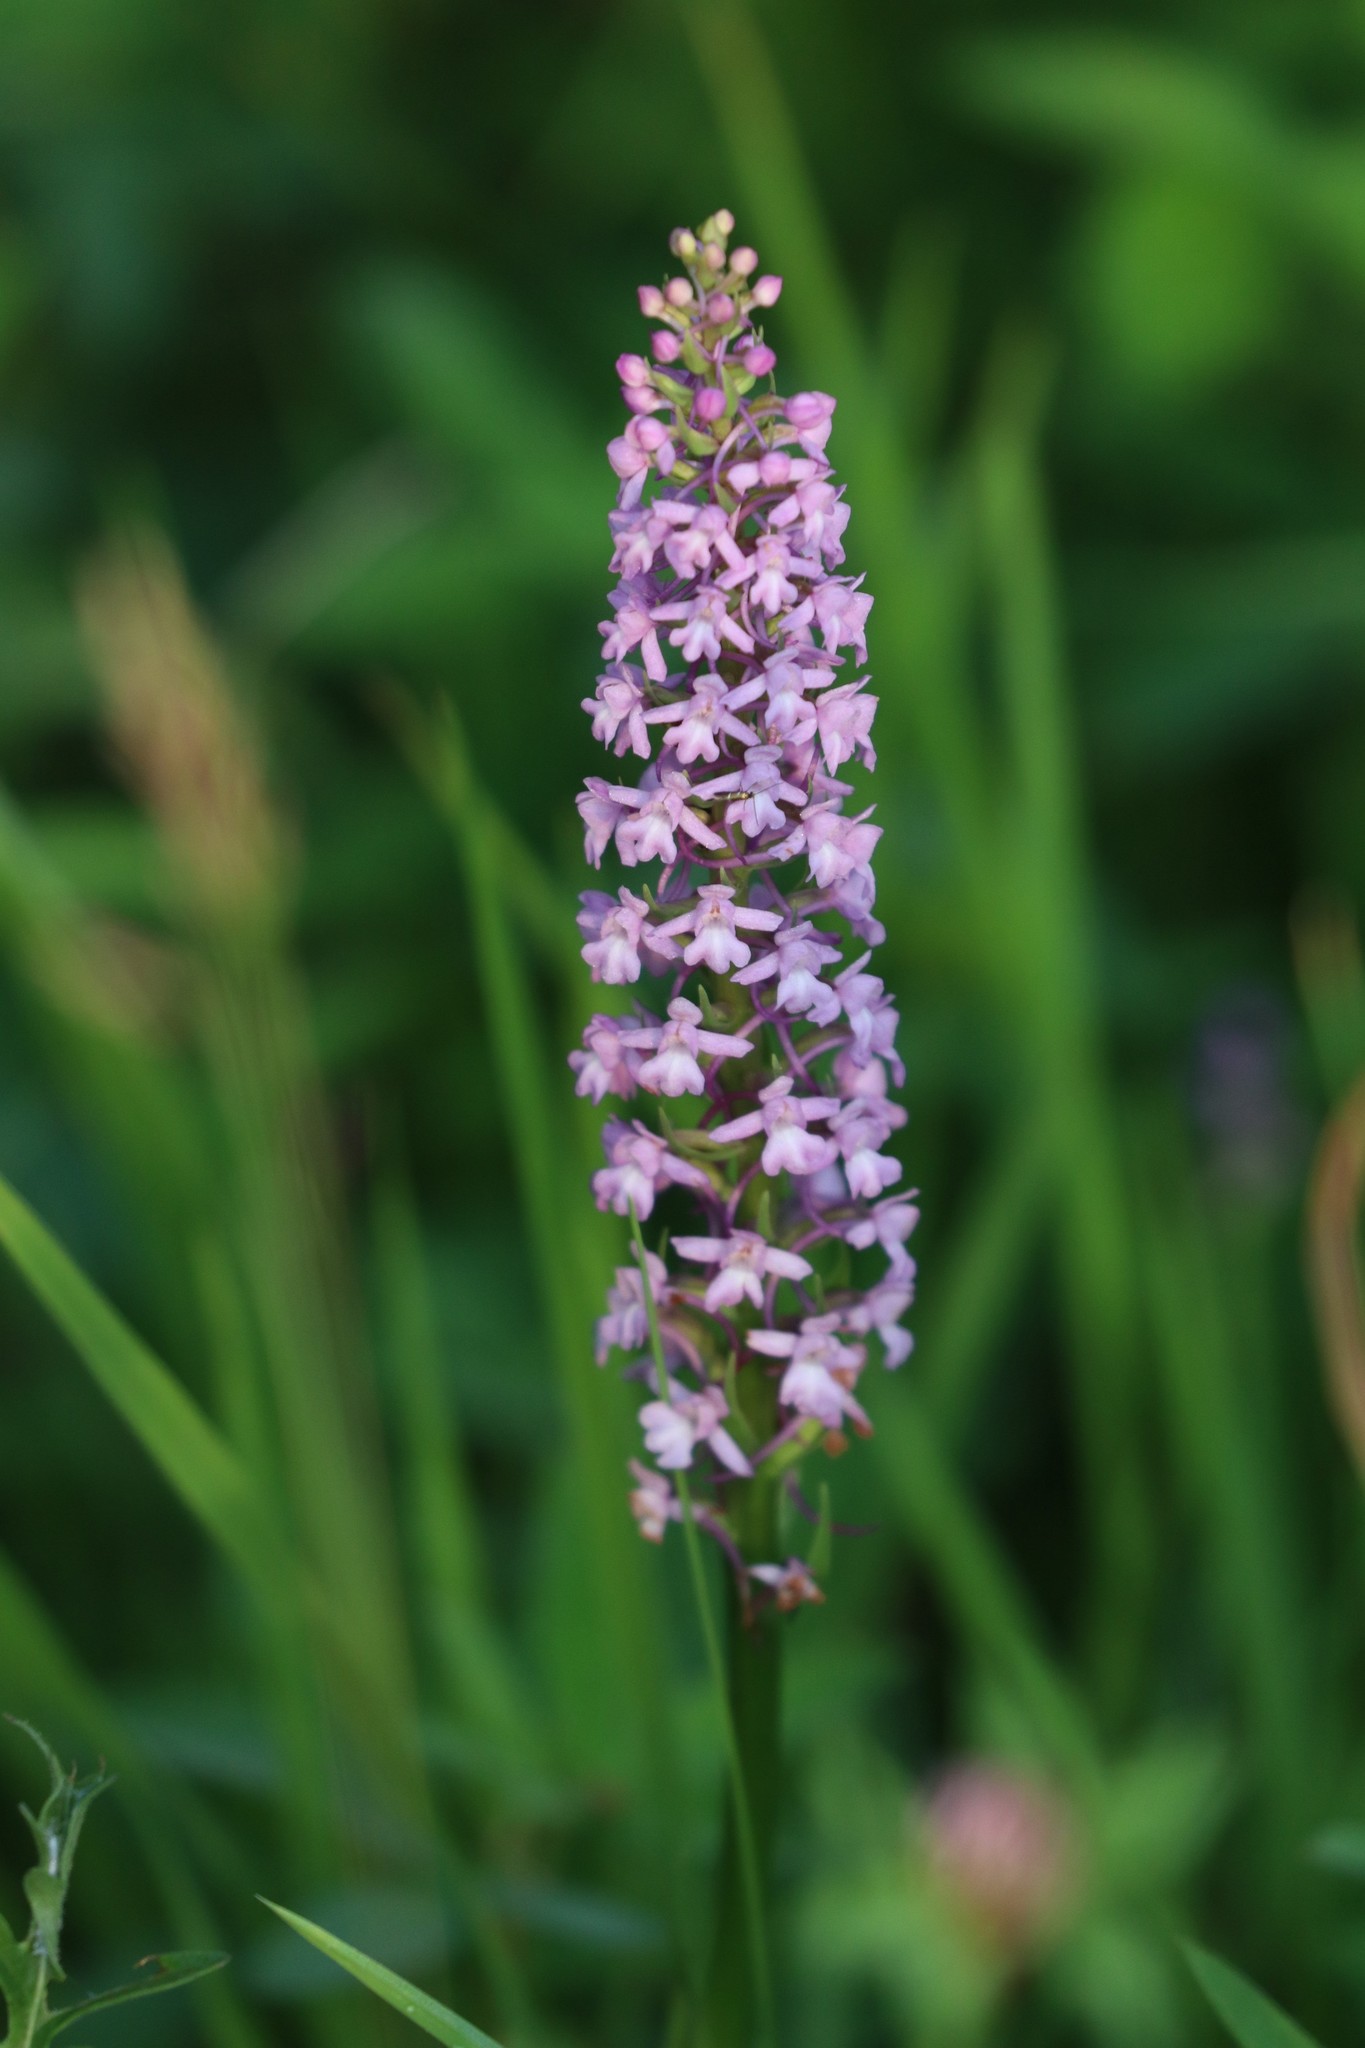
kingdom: Plantae
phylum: Tracheophyta
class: Liliopsida
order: Asparagales
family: Orchidaceae
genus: Gymnadenia
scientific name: Gymnadenia conopsea
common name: Fragrant orchid
